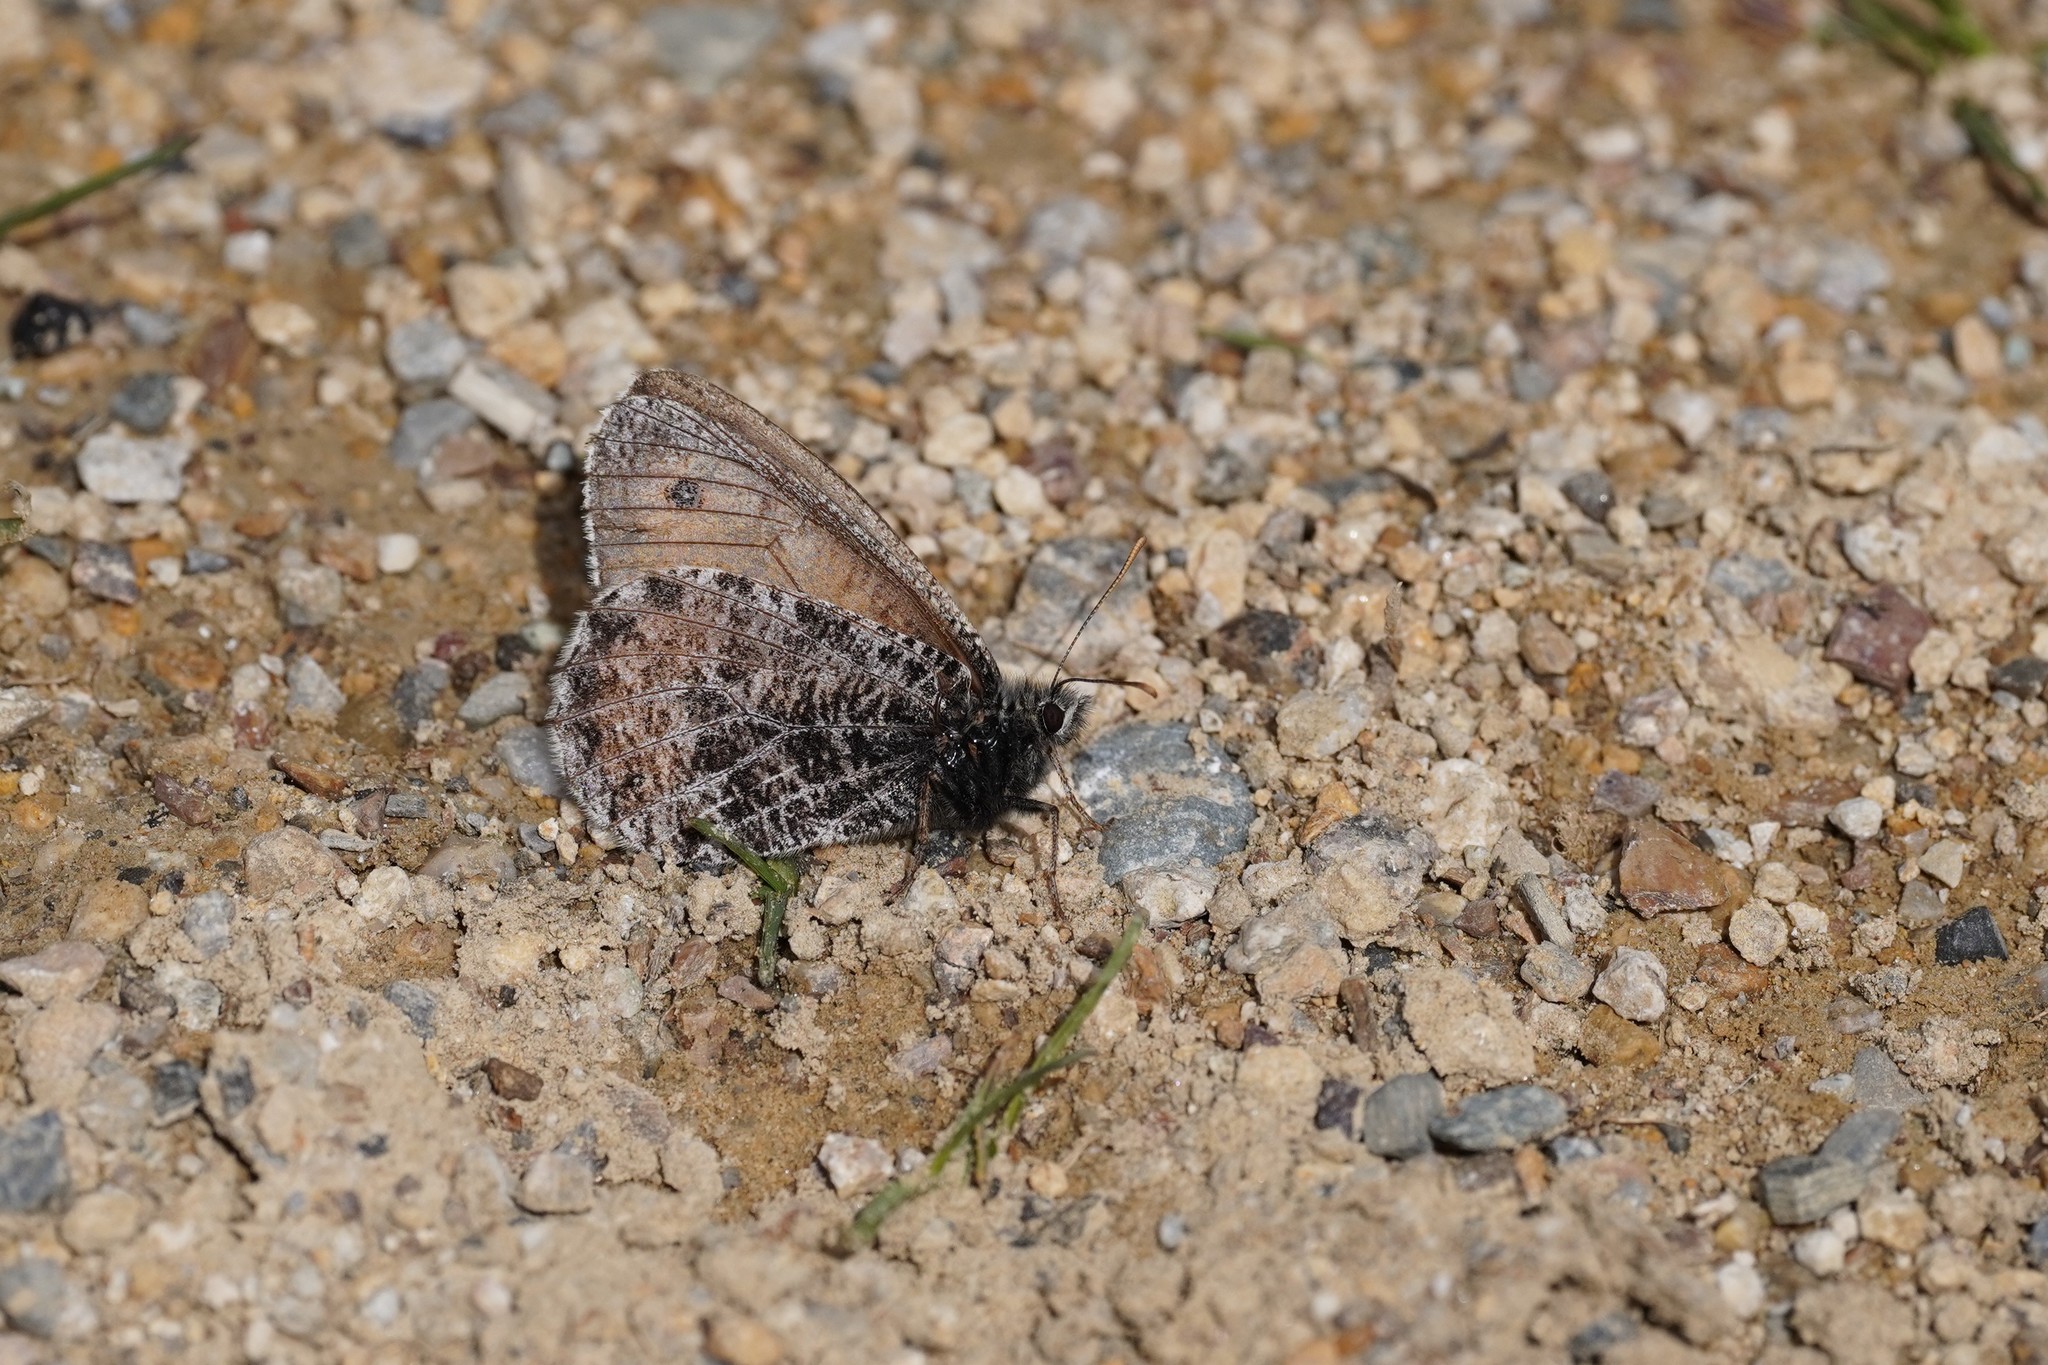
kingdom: Animalia
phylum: Arthropoda
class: Insecta
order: Lepidoptera
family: Nymphalidae
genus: Oeneis
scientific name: Oeneis aello
